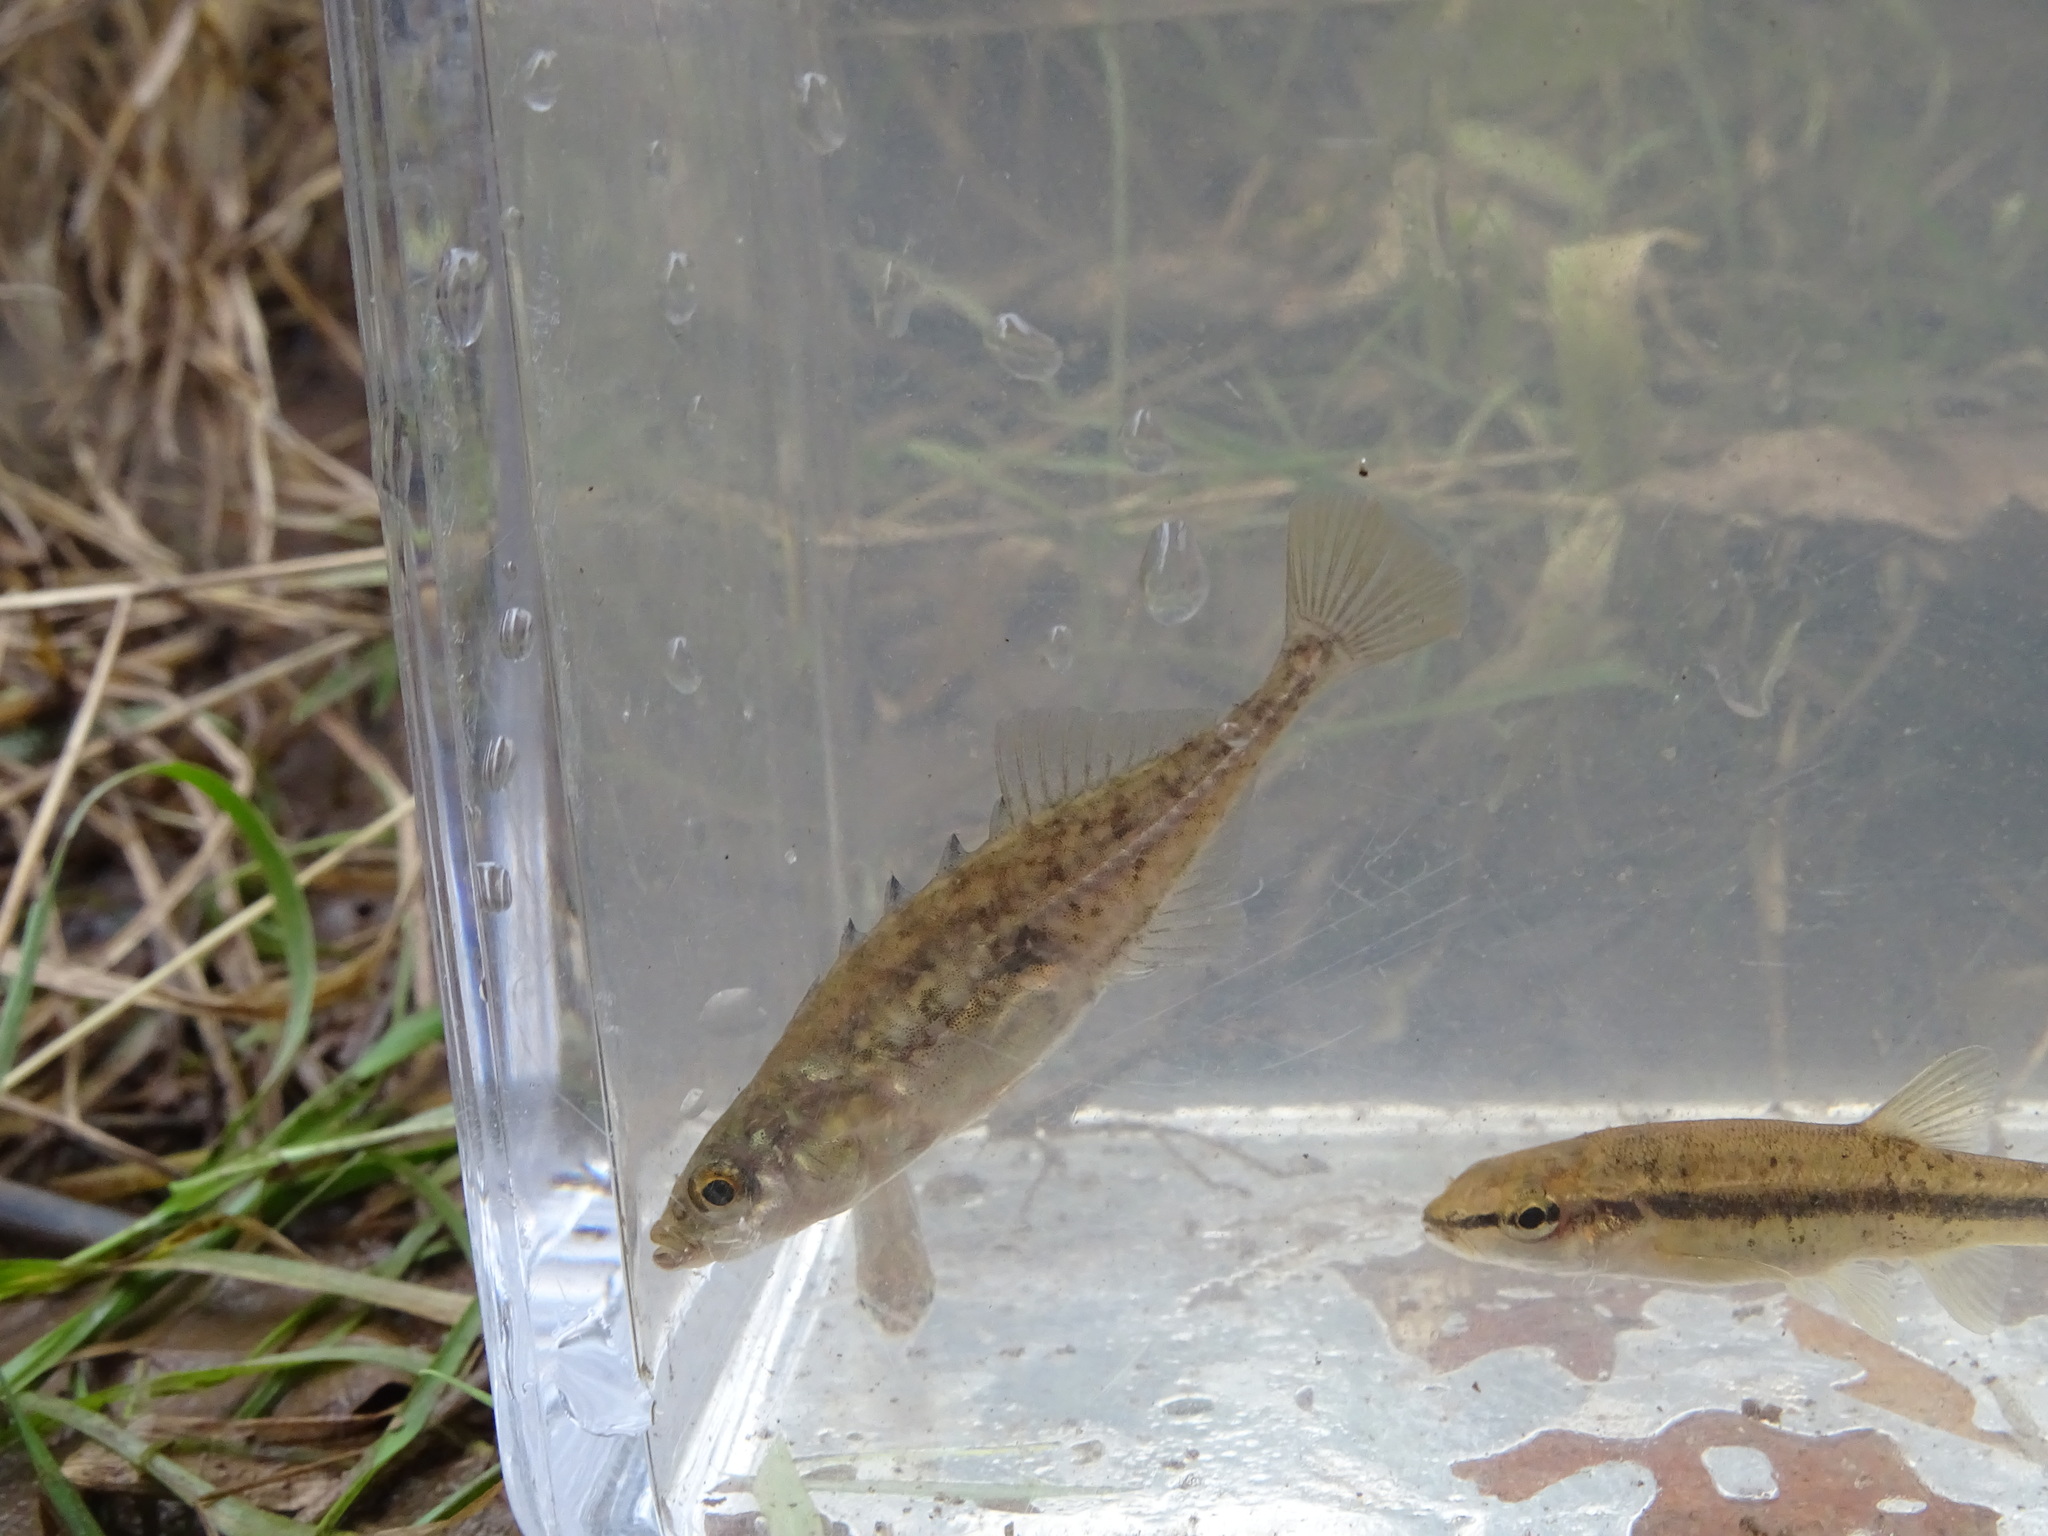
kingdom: Animalia
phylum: Chordata
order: Gasterosteiformes
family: Gasterosteidae
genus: Culaea
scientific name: Culaea inconstans
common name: Brook stickleback
